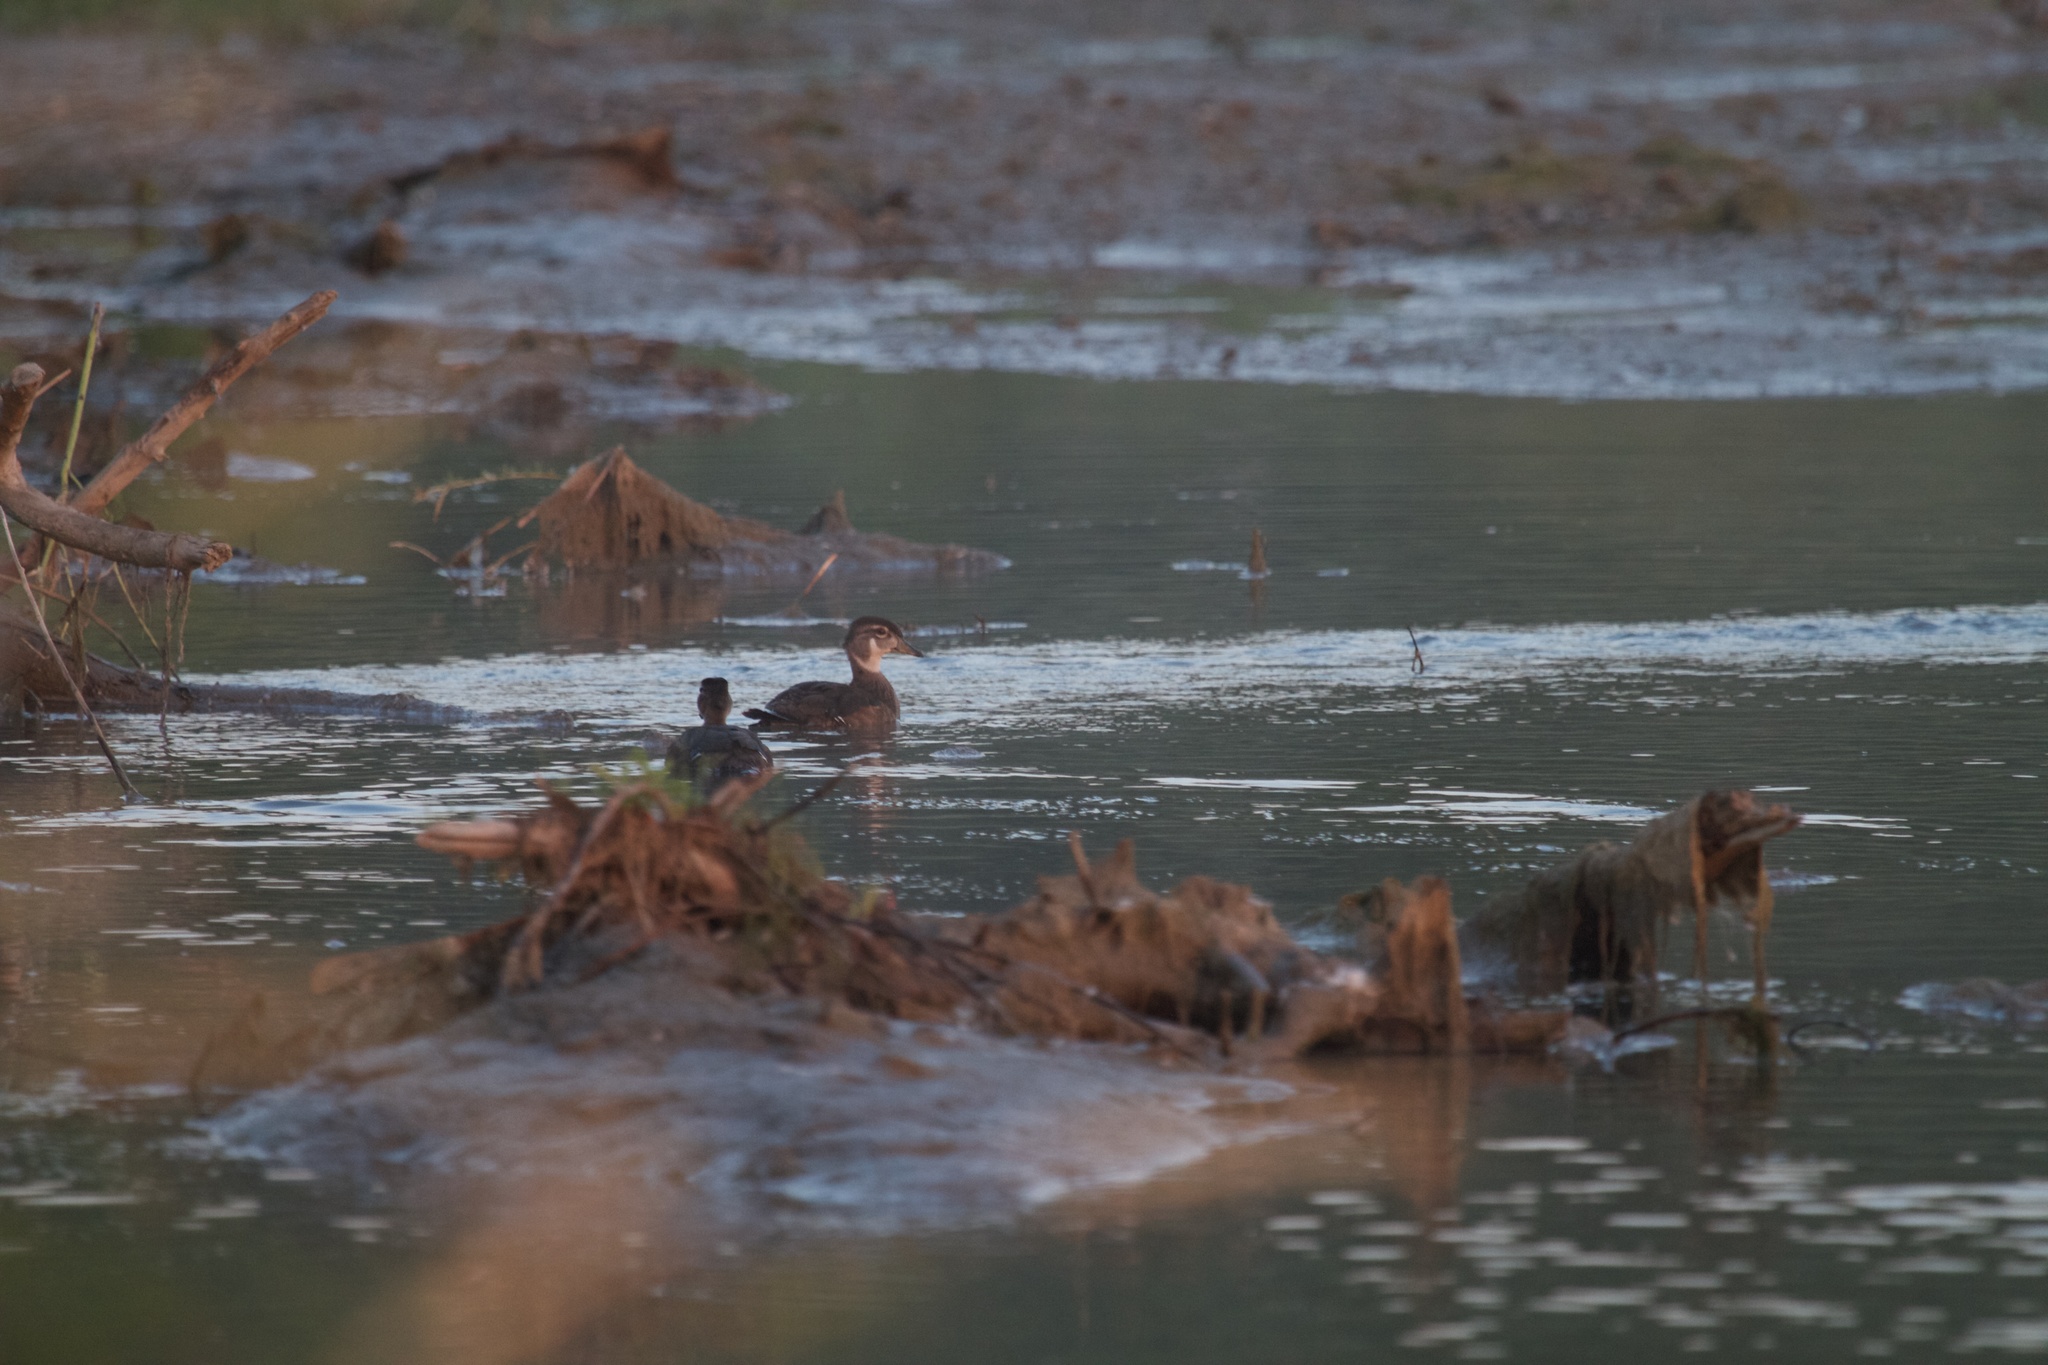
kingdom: Animalia
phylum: Chordata
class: Aves
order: Anseriformes
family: Anatidae
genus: Aix
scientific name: Aix sponsa
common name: Wood duck
